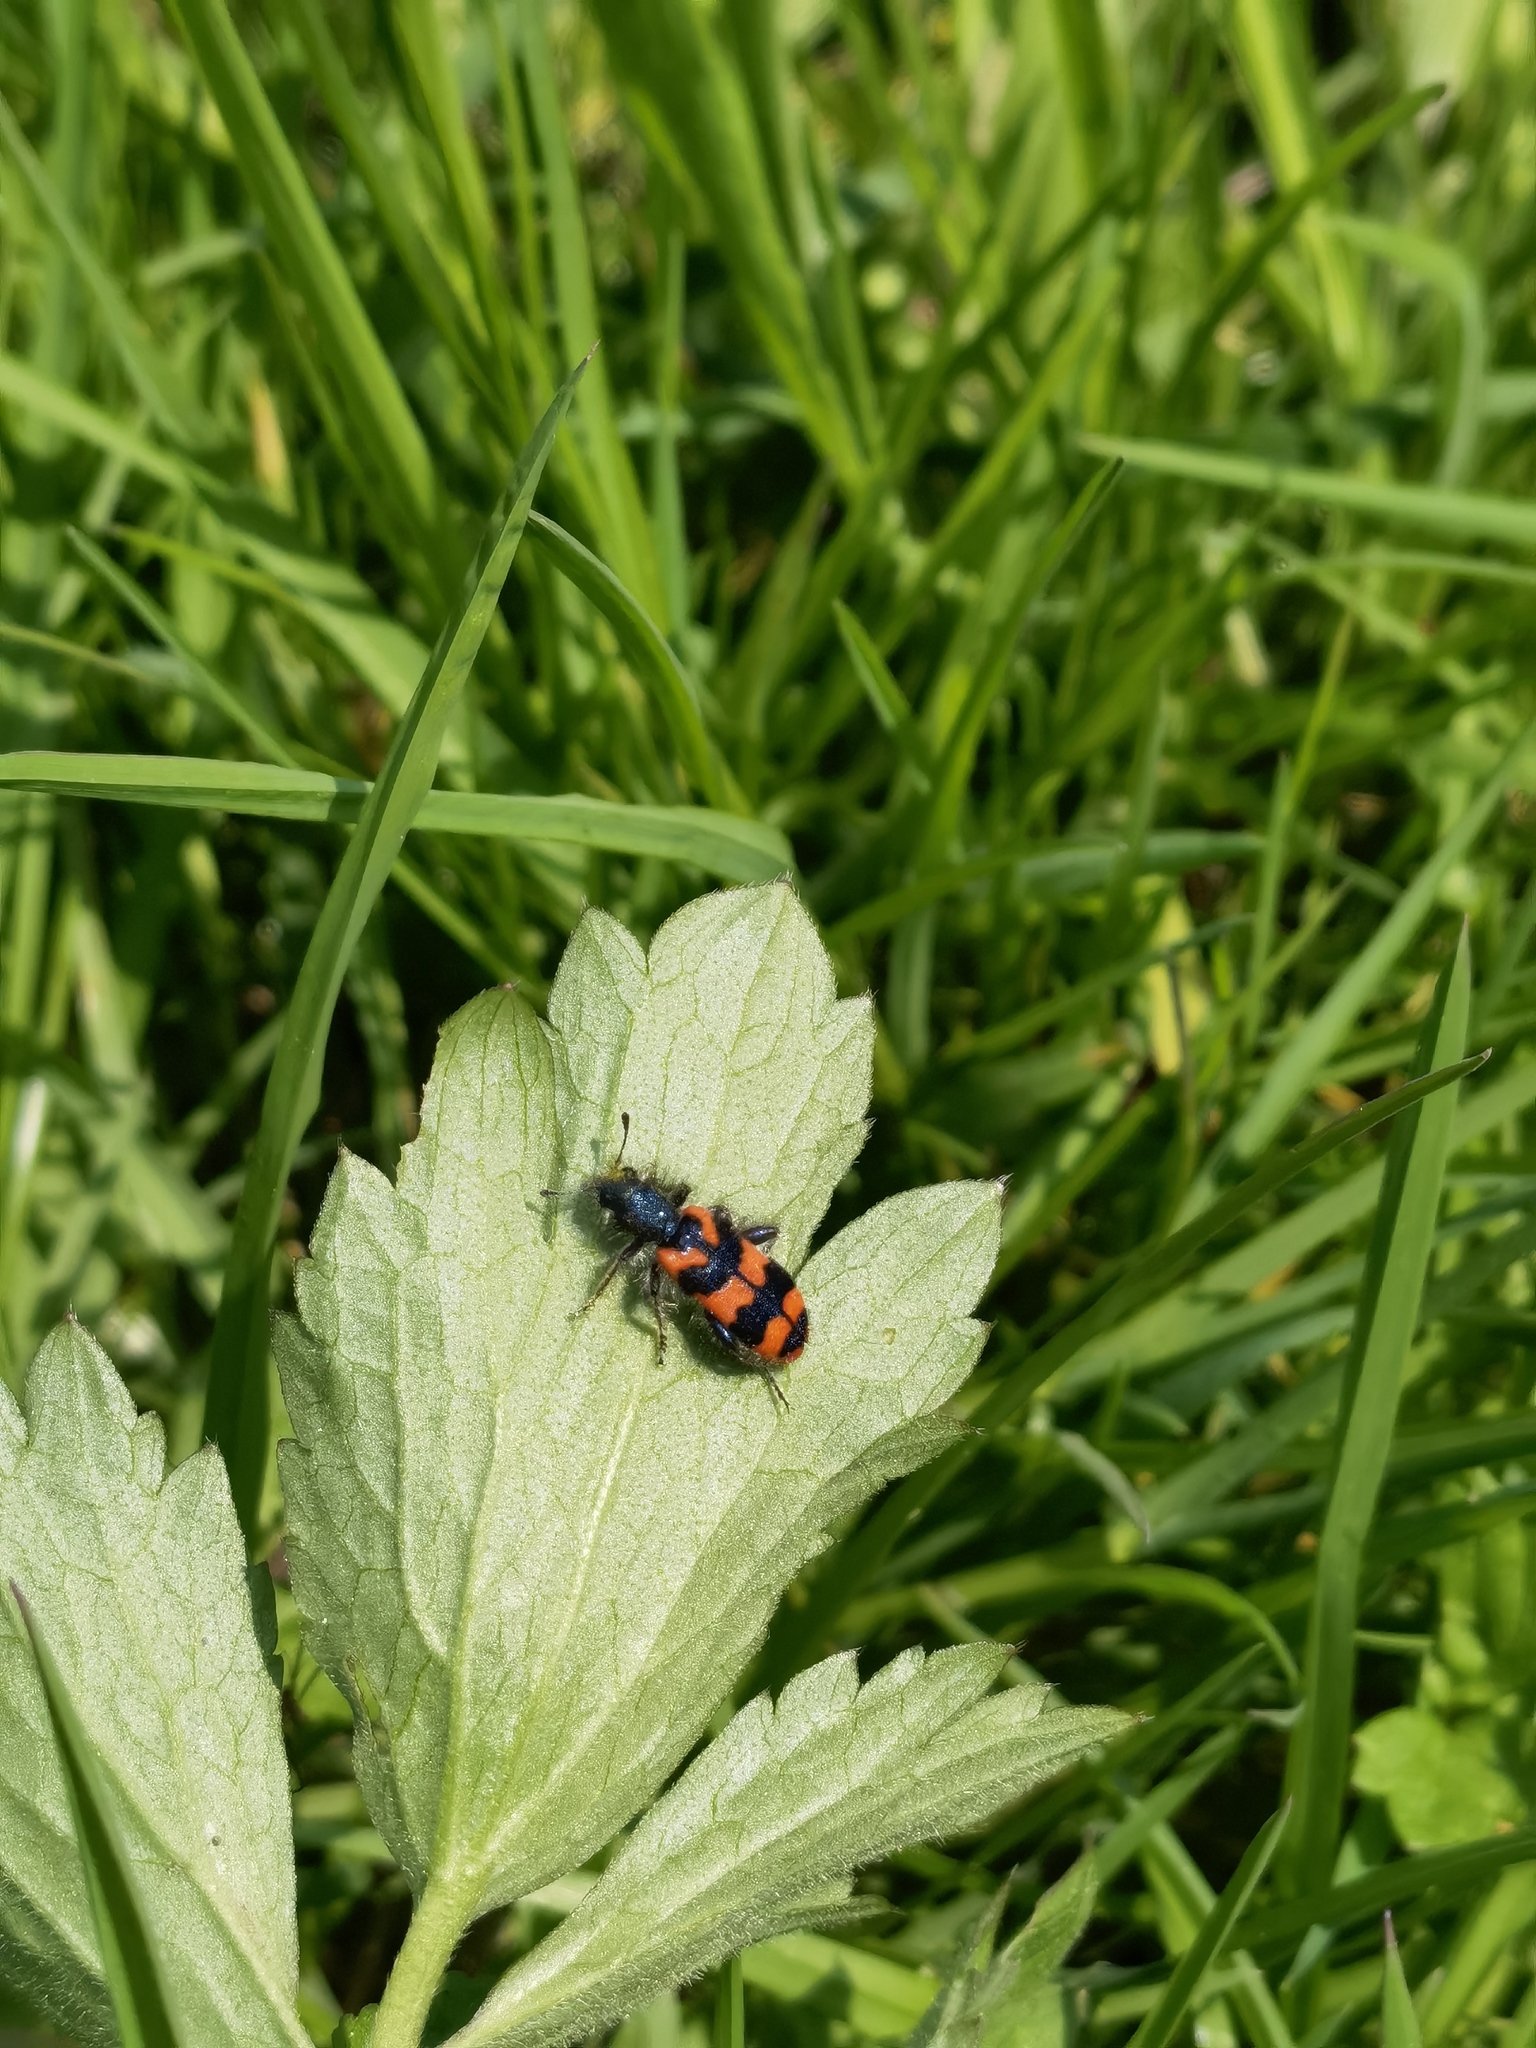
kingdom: Animalia
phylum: Arthropoda
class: Insecta
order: Coleoptera
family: Cleridae
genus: Trichodes
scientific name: Trichodes alvearius
